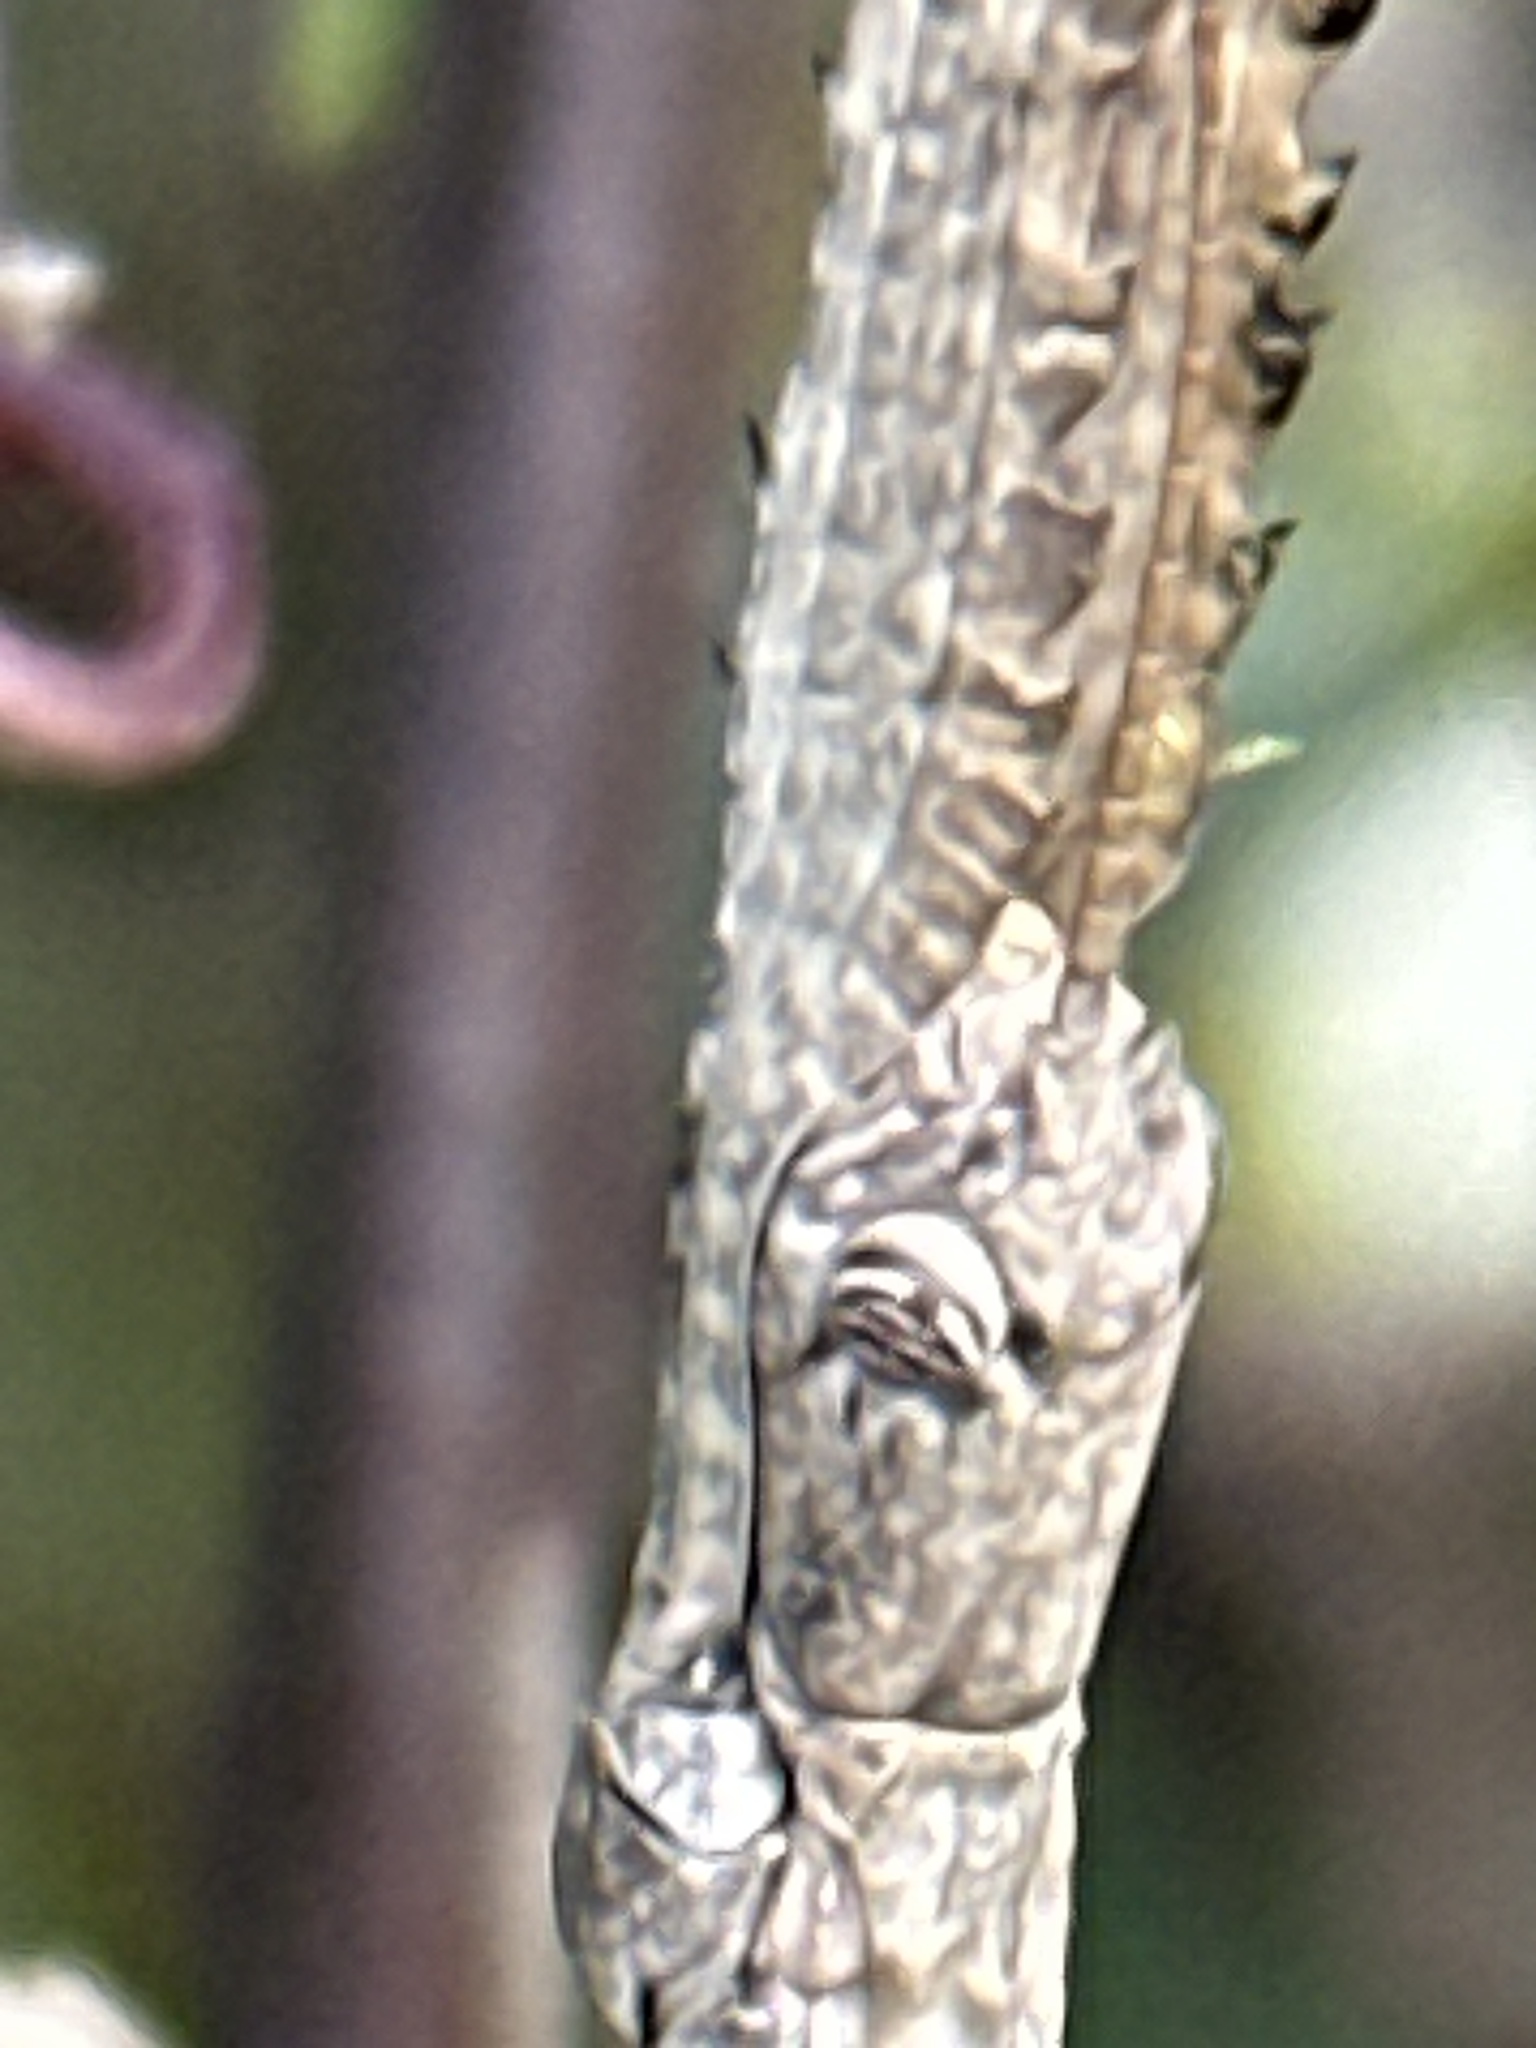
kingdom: Animalia
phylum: Arthropoda
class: Insecta
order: Phasmida
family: Phasmatidae
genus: Ctenomorpha
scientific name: Ctenomorpha marginipennis
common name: Margined-winged stick-insect
